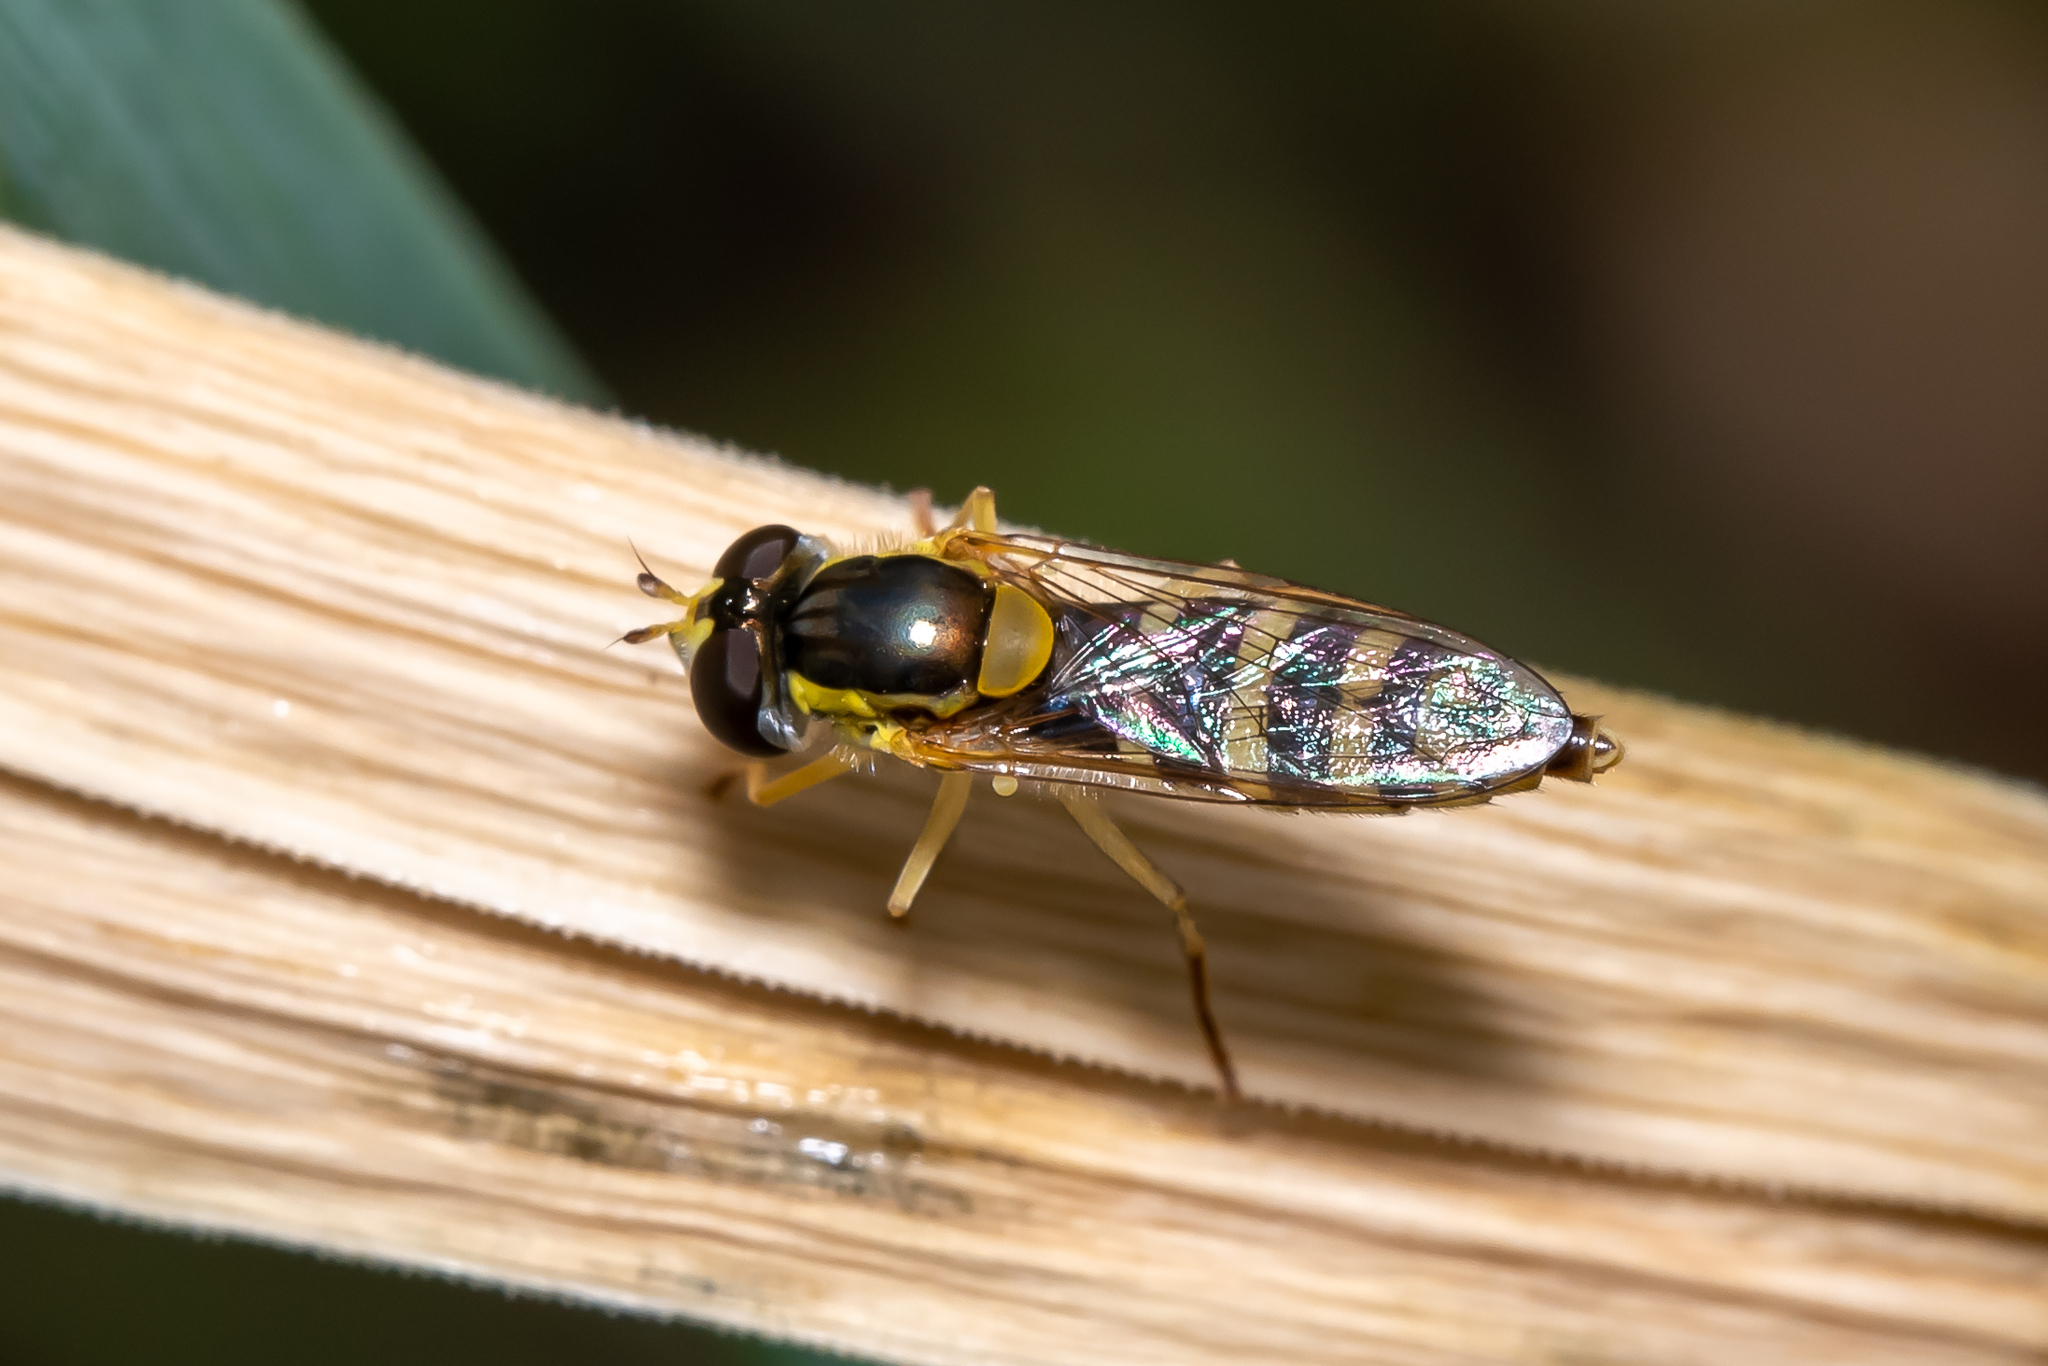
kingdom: Animalia
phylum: Arthropoda
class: Insecta
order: Diptera
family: Syrphidae
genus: Sphaerophoria
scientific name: Sphaerophoria scripta
